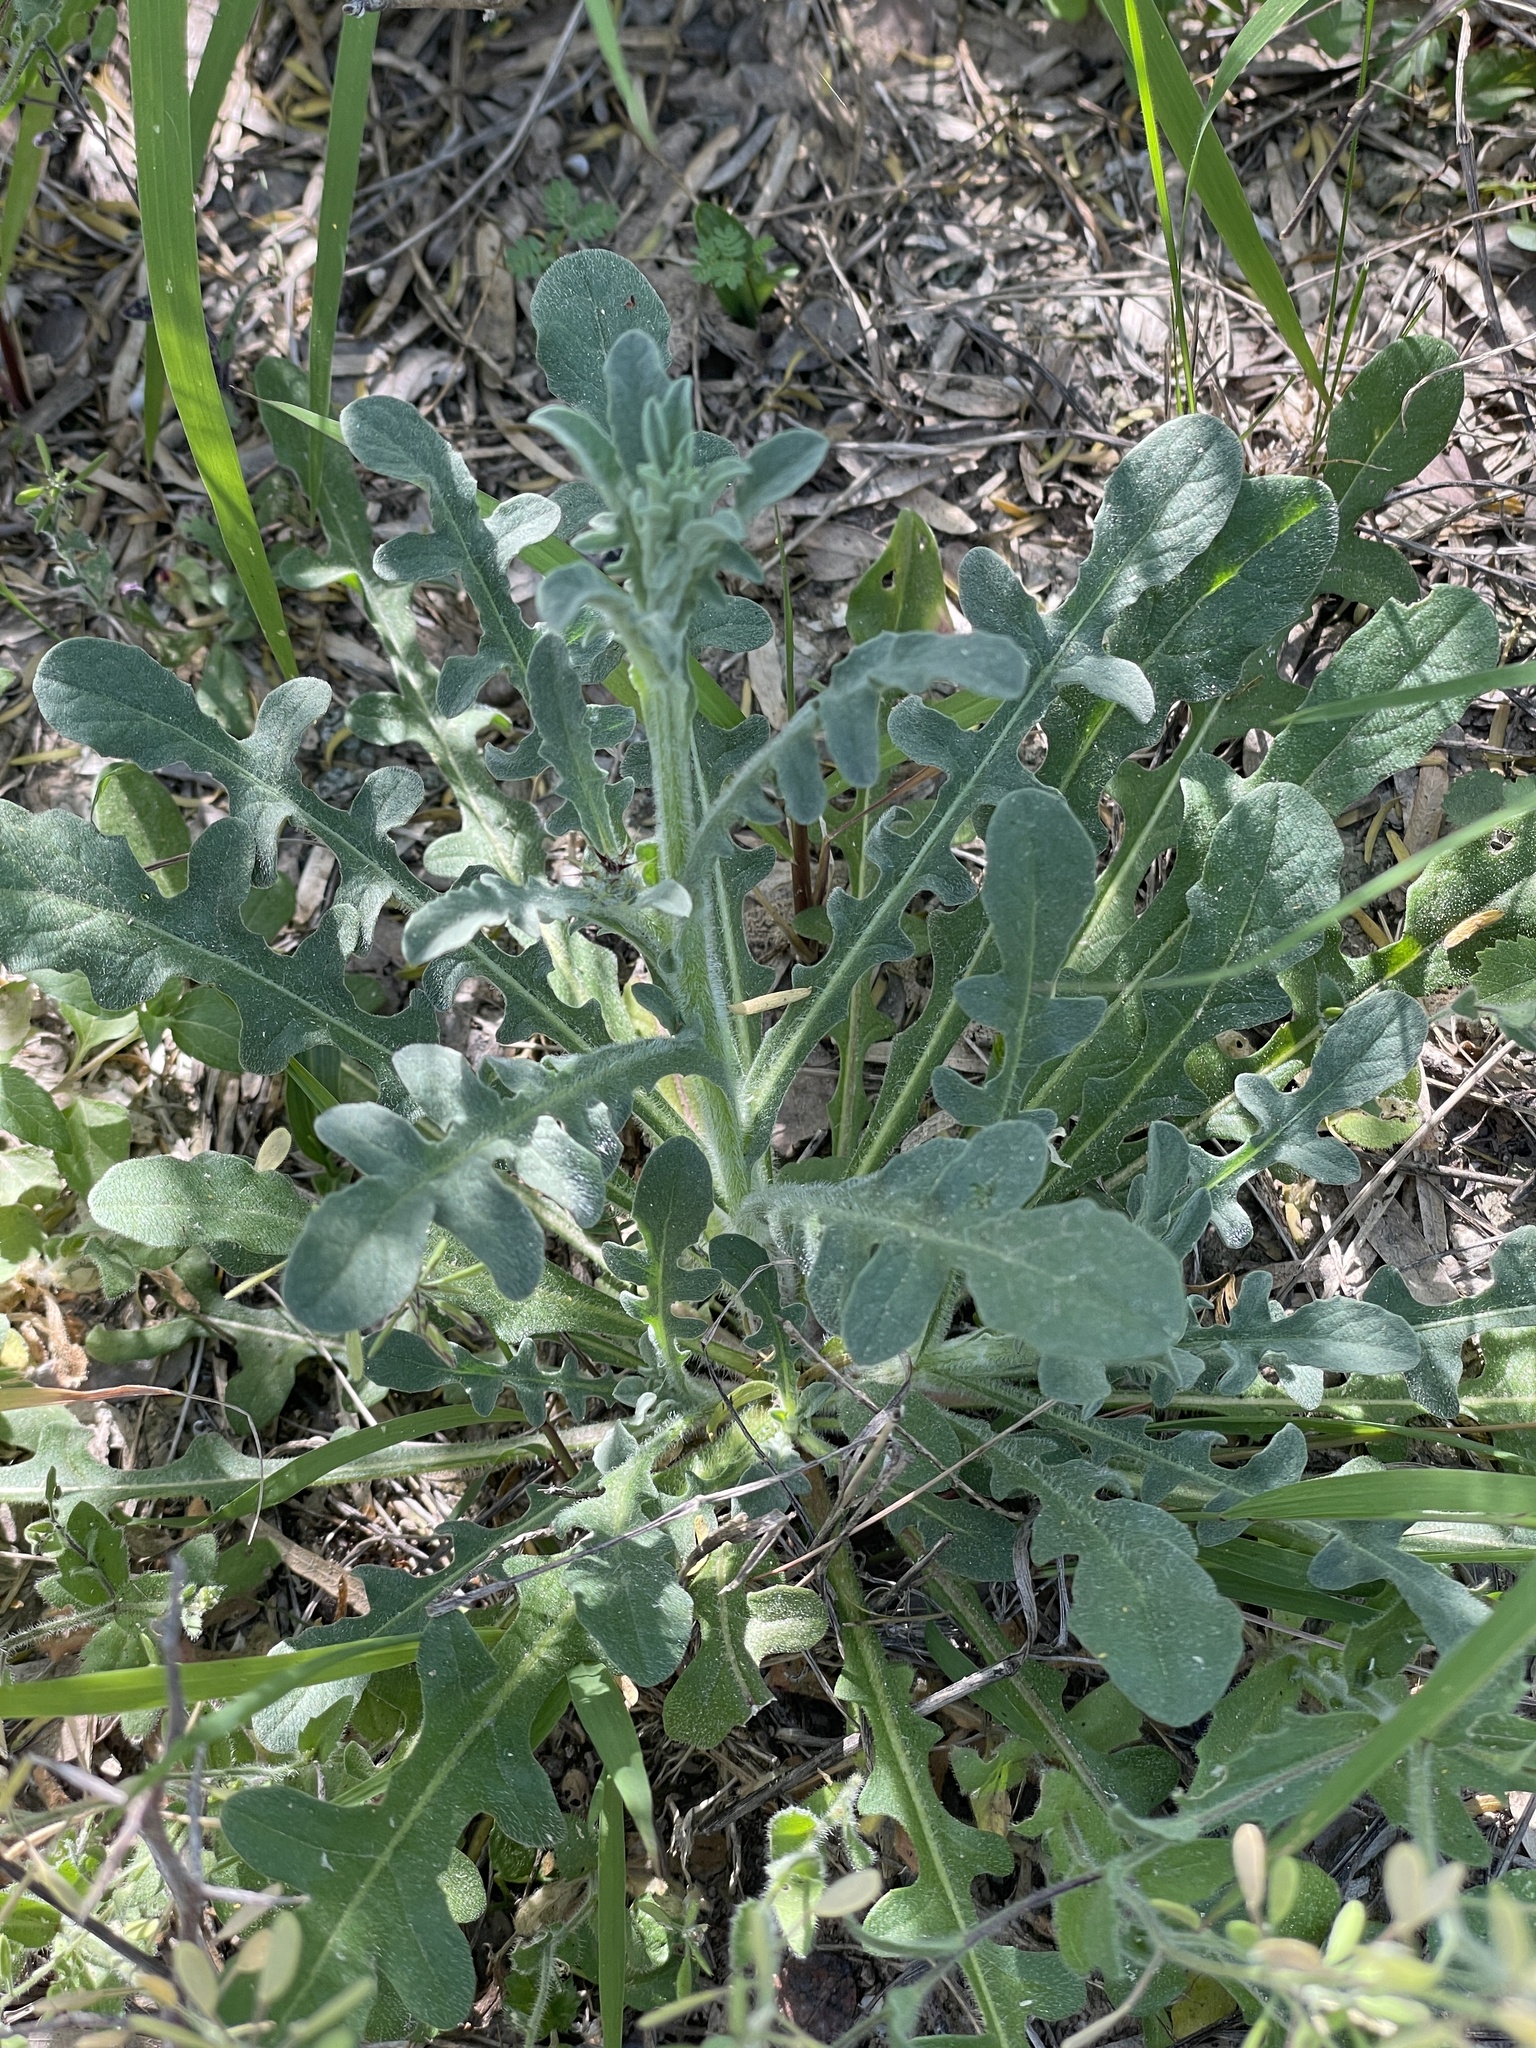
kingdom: Plantae
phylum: Tracheophyta
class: Magnoliopsida
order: Asterales
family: Asteraceae
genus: Centaurea
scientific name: Centaurea melitensis
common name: Maltese star-thistle
